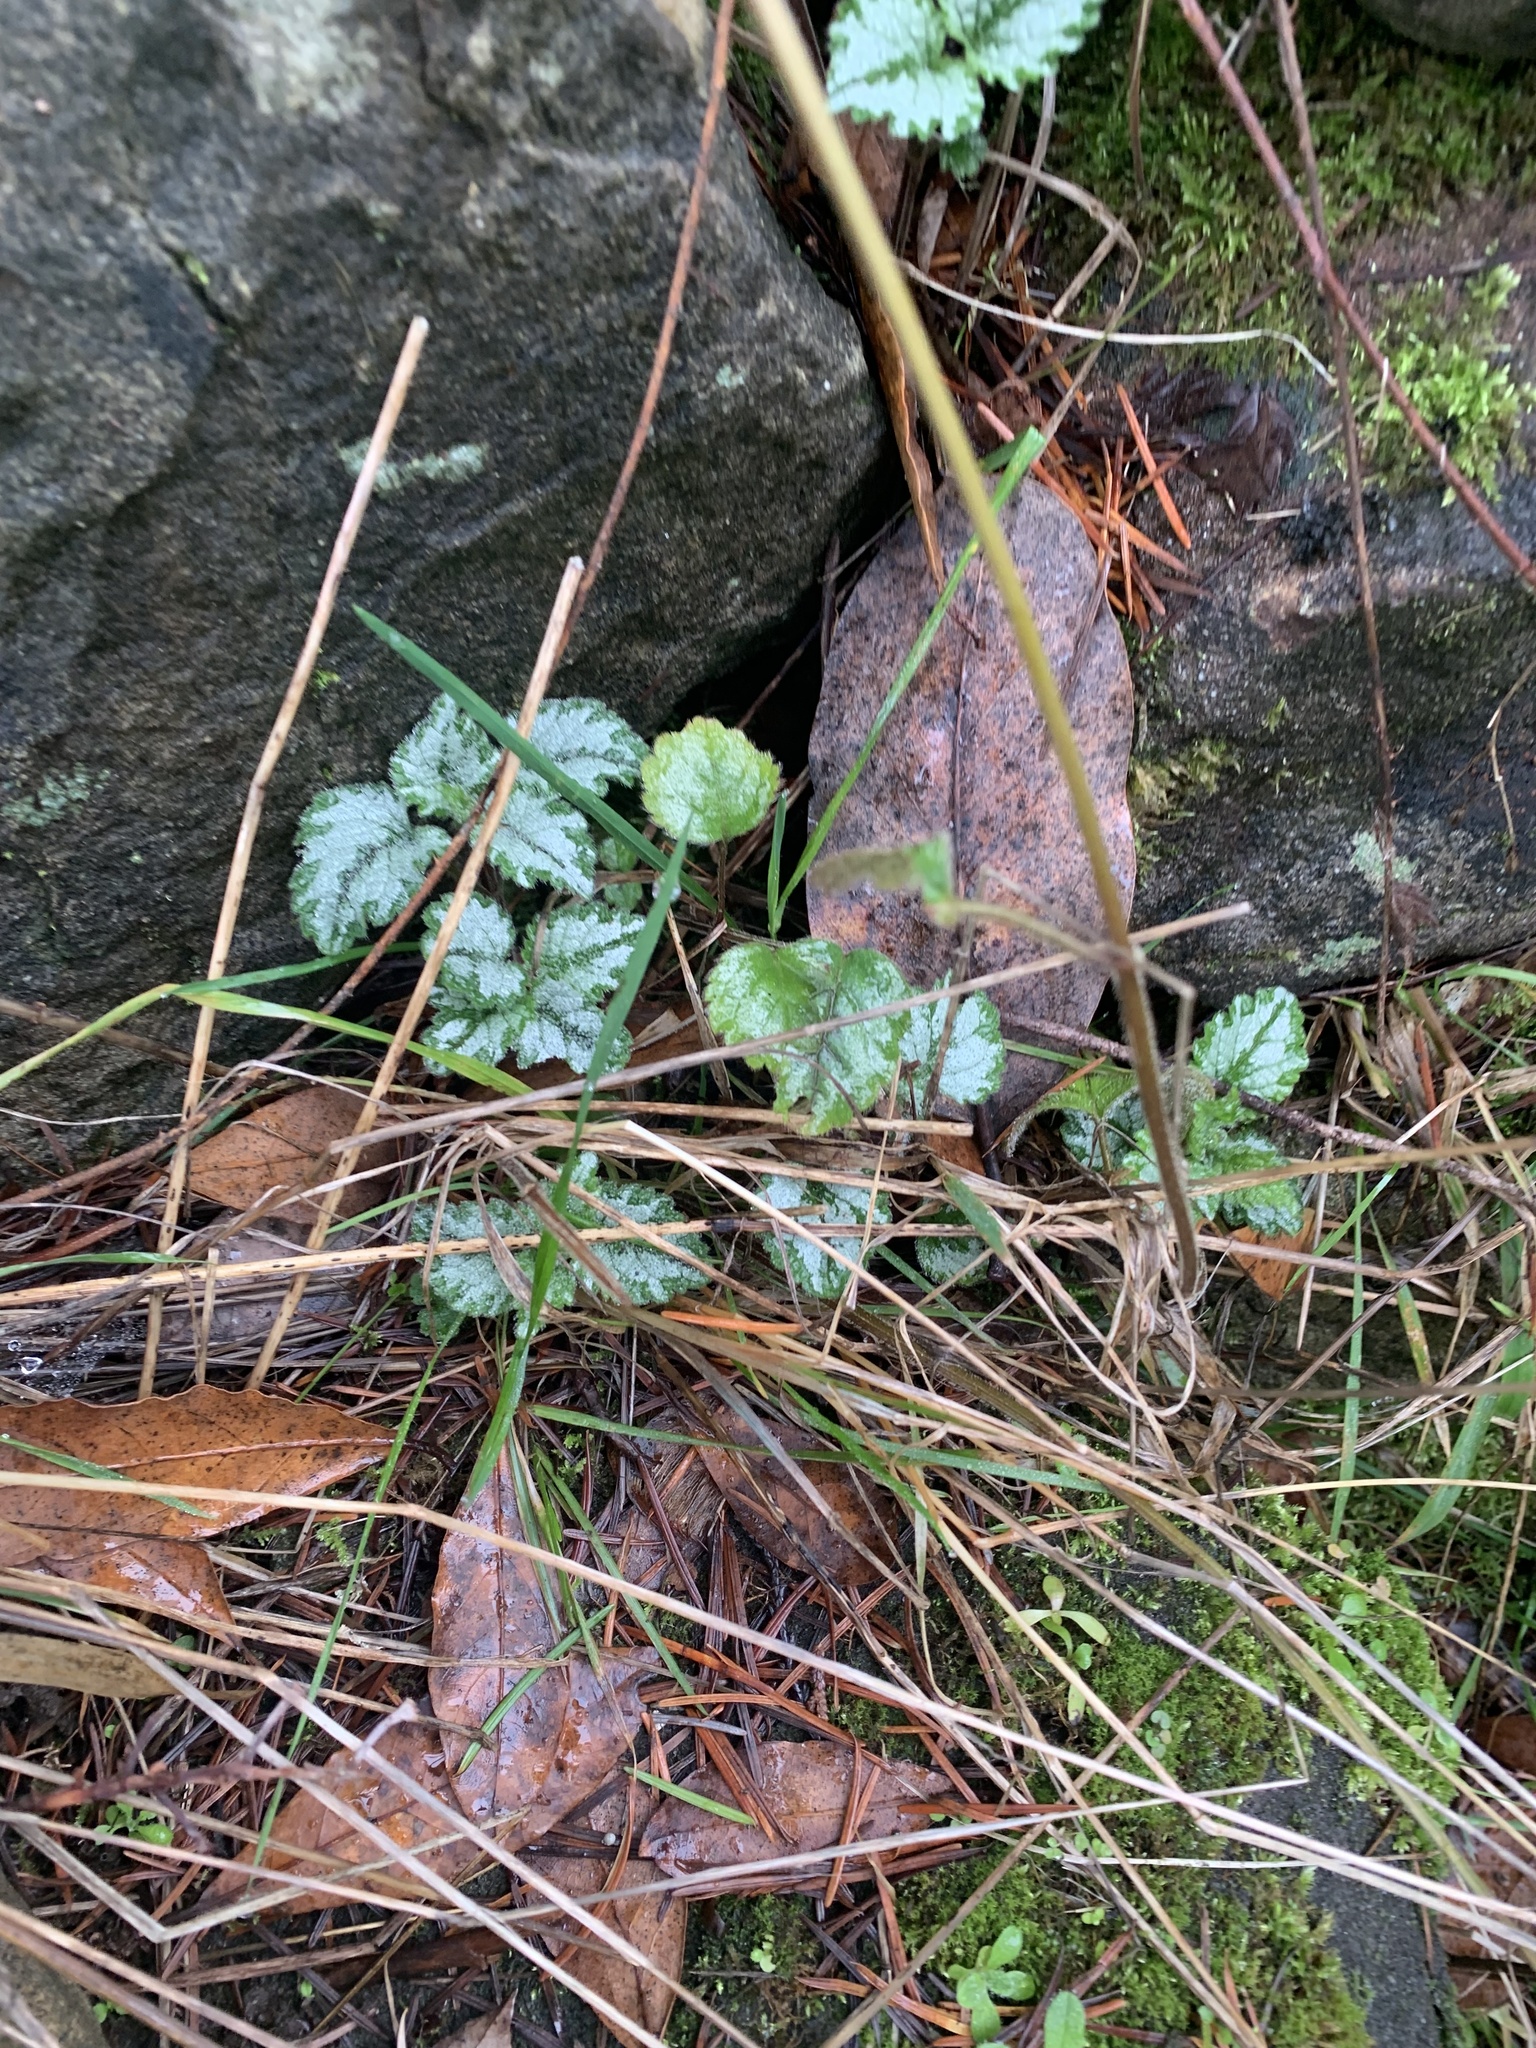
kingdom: Plantae
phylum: Tracheophyta
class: Magnoliopsida
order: Lamiales
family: Lamiaceae
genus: Lamium
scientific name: Lamium galeobdolon
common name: Yellow archangel
